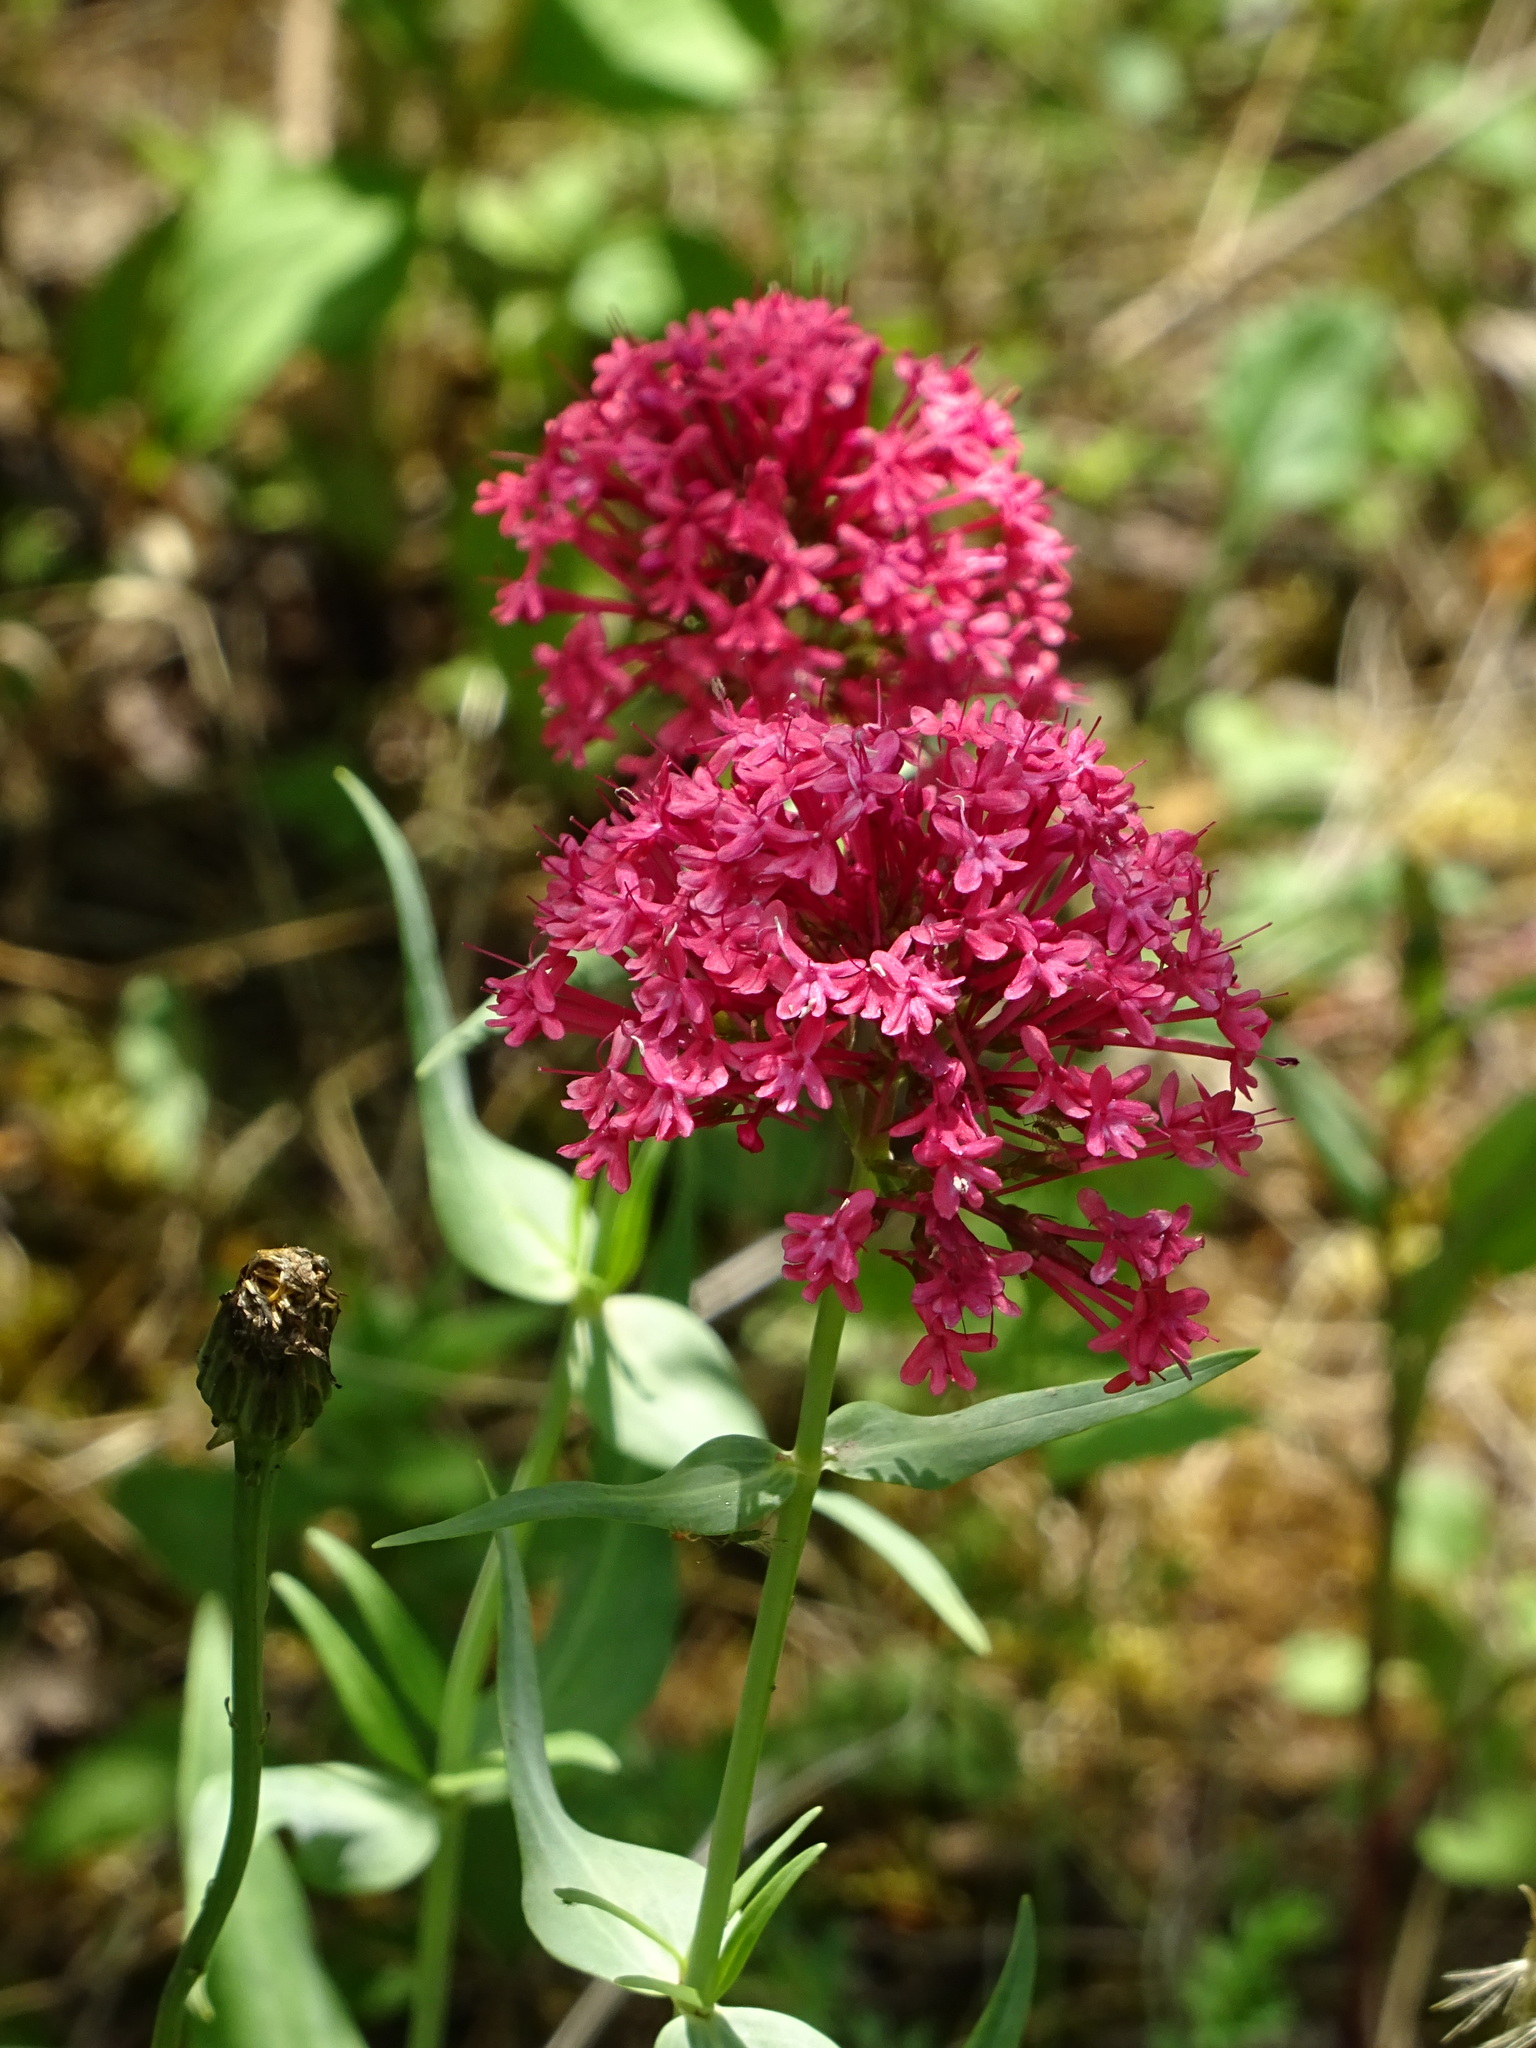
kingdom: Plantae
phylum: Tracheophyta
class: Magnoliopsida
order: Dipsacales
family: Caprifoliaceae
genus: Centranthus
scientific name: Centranthus ruber
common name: Red valerian
